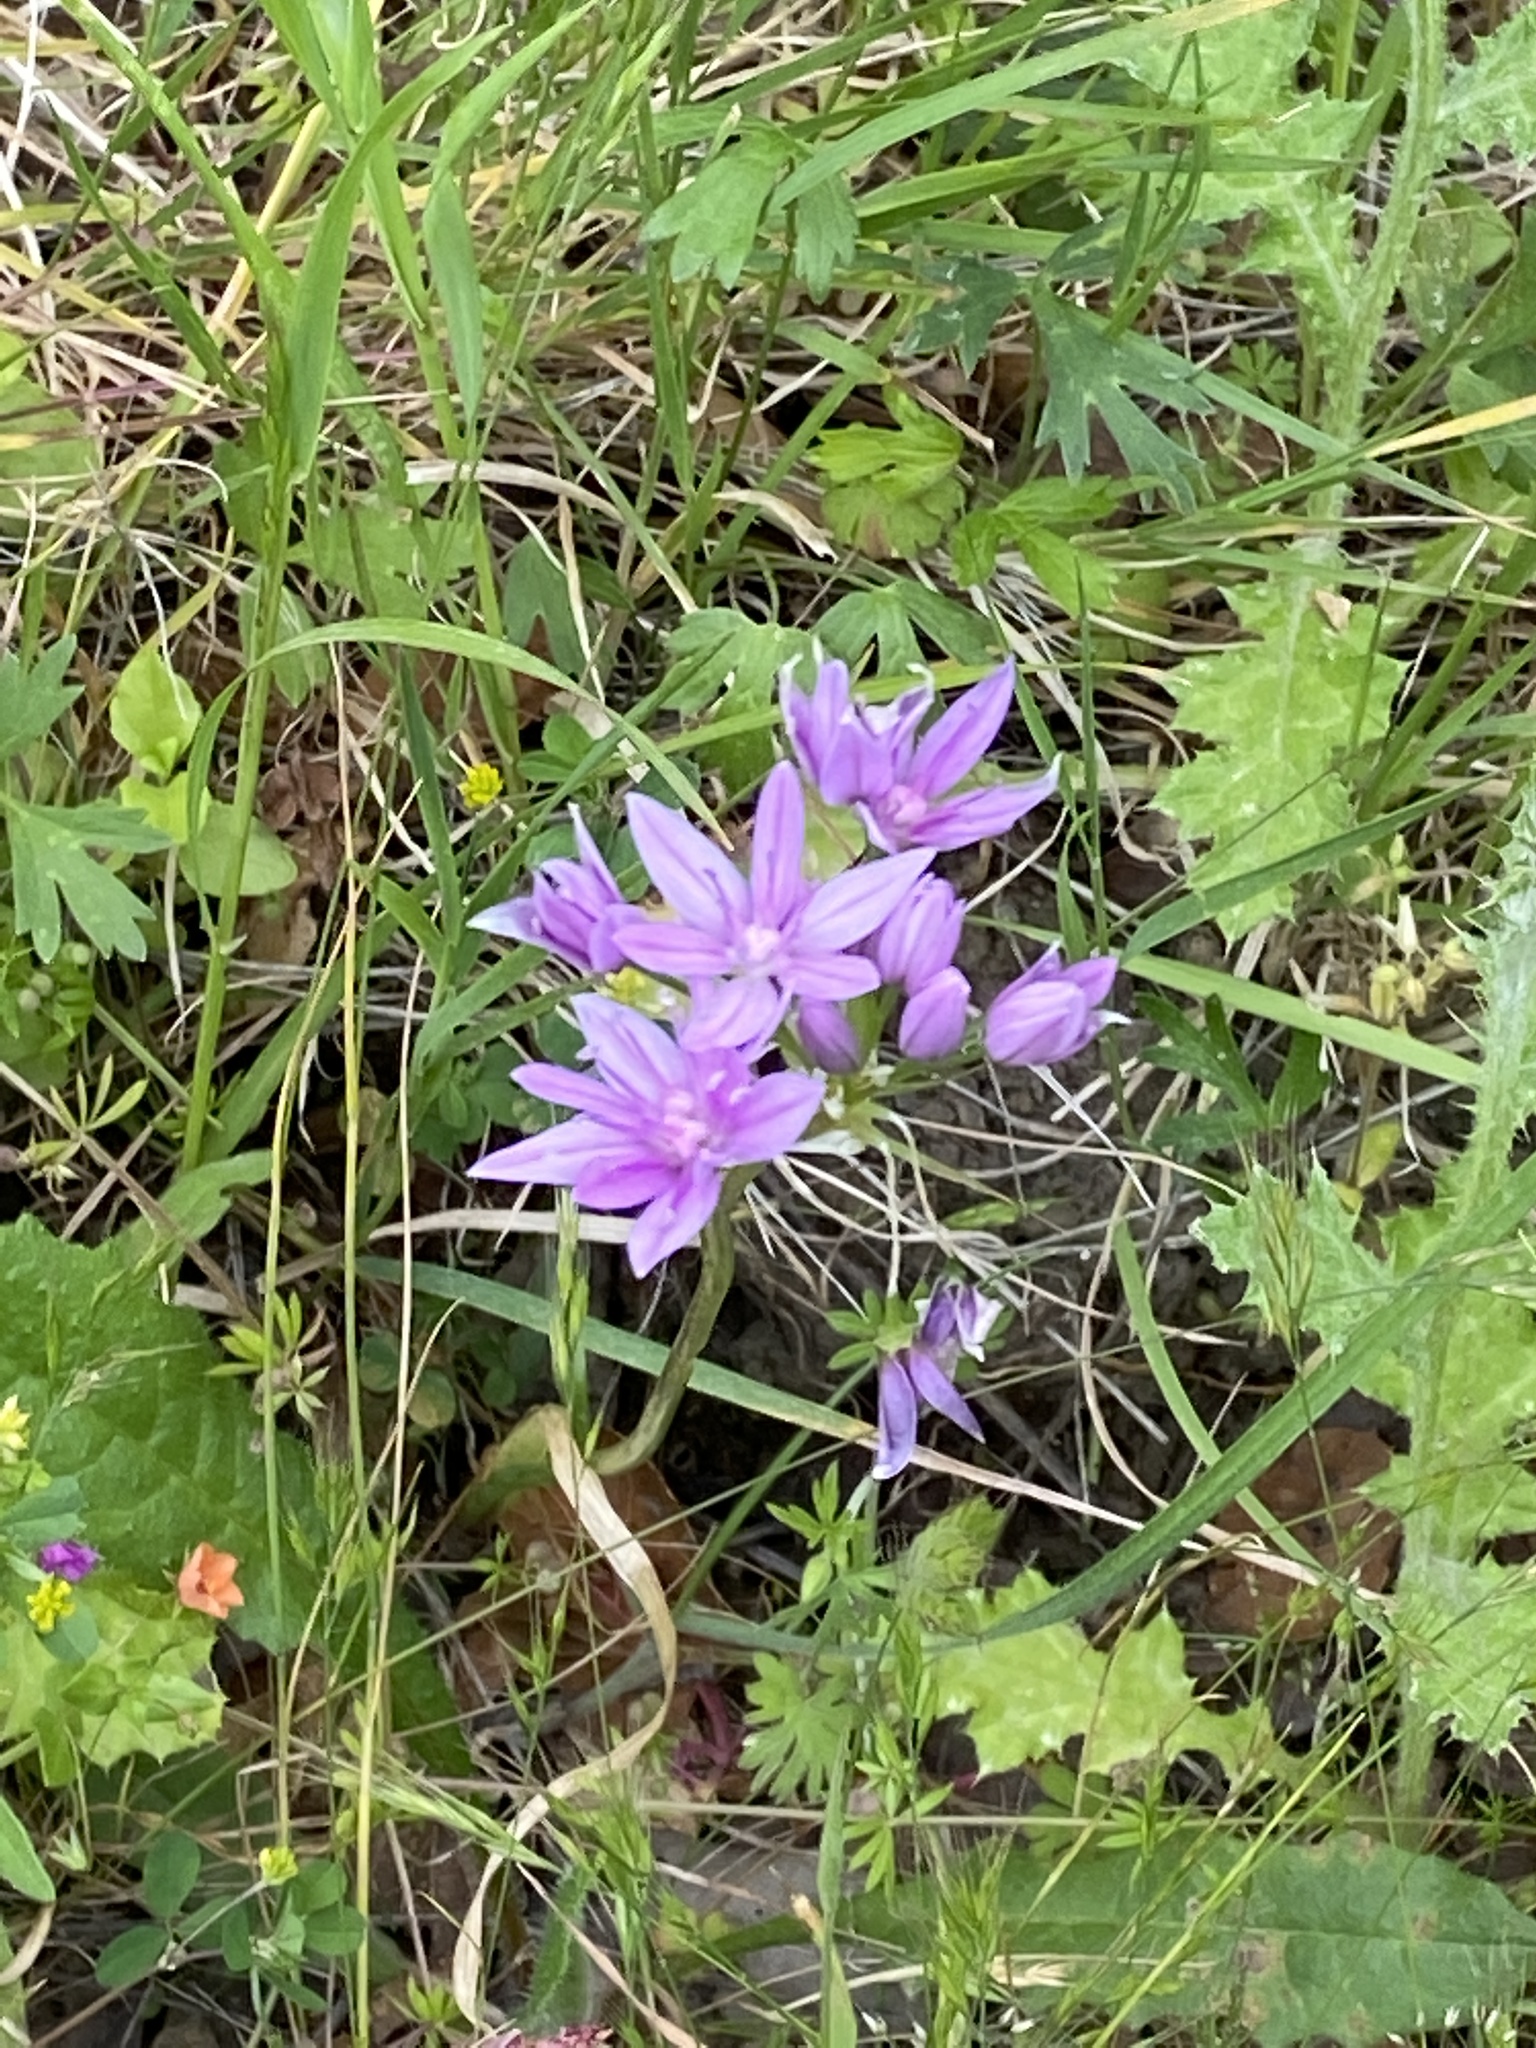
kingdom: Plantae
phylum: Tracheophyta
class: Liliopsida
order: Asparagales
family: Amaryllidaceae
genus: Allium
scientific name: Allium unifolium
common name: American garlic
